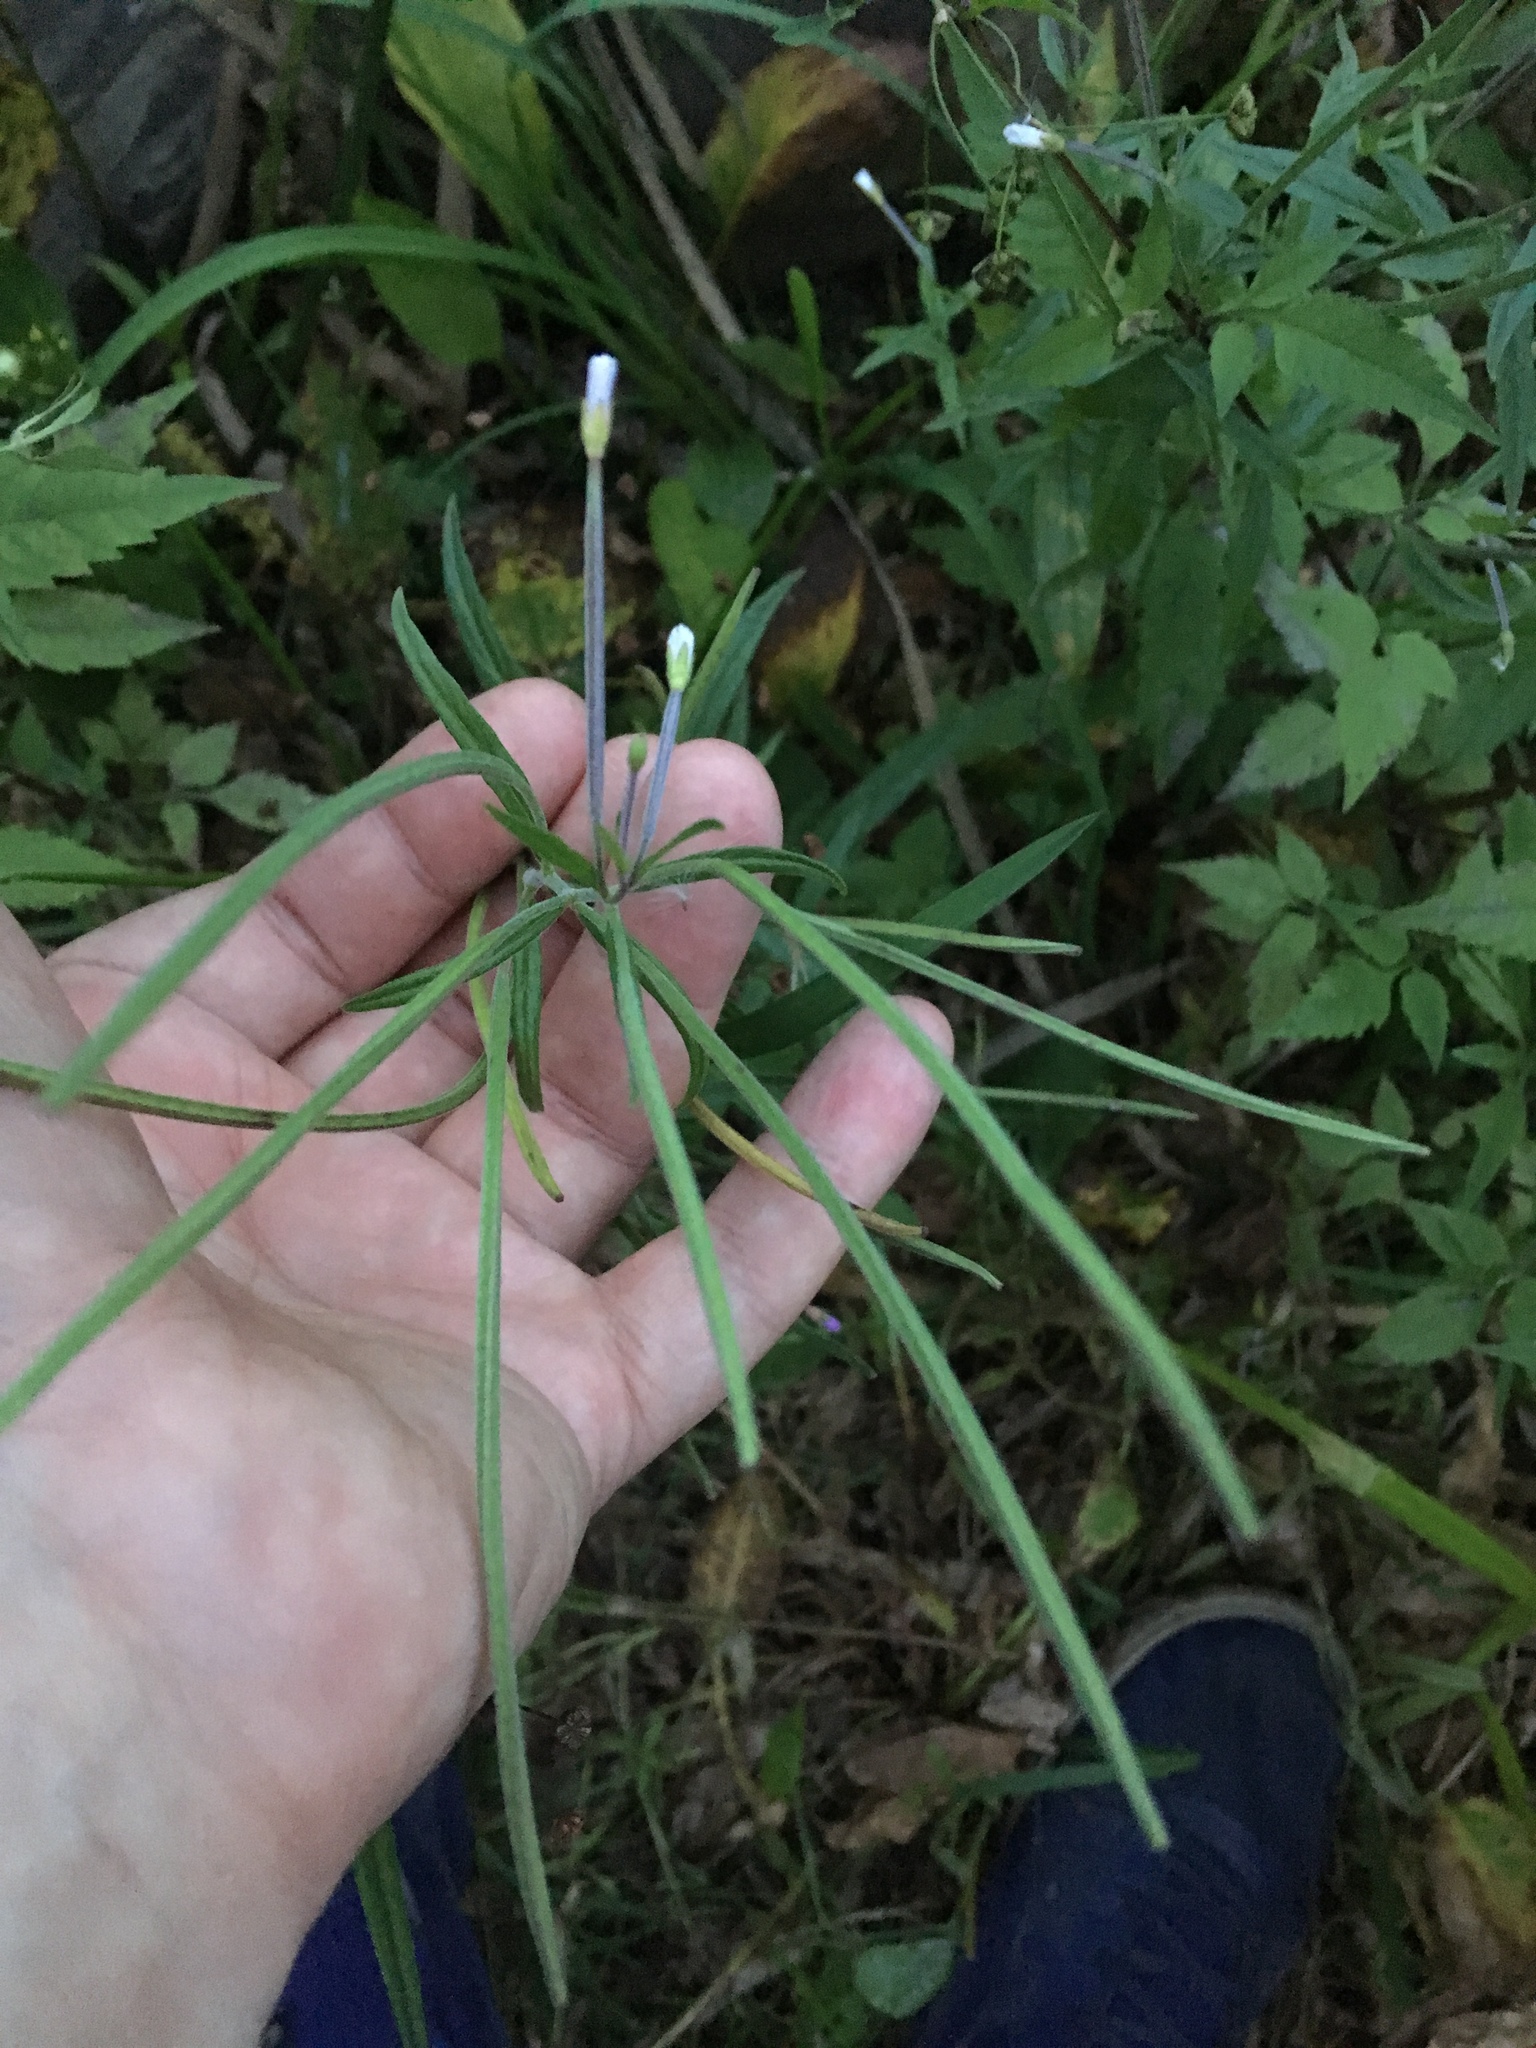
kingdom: Plantae
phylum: Tracheophyta
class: Magnoliopsida
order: Myrtales
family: Onagraceae
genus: Epilobium
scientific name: Epilobium palustre
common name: Marsh willowherb
